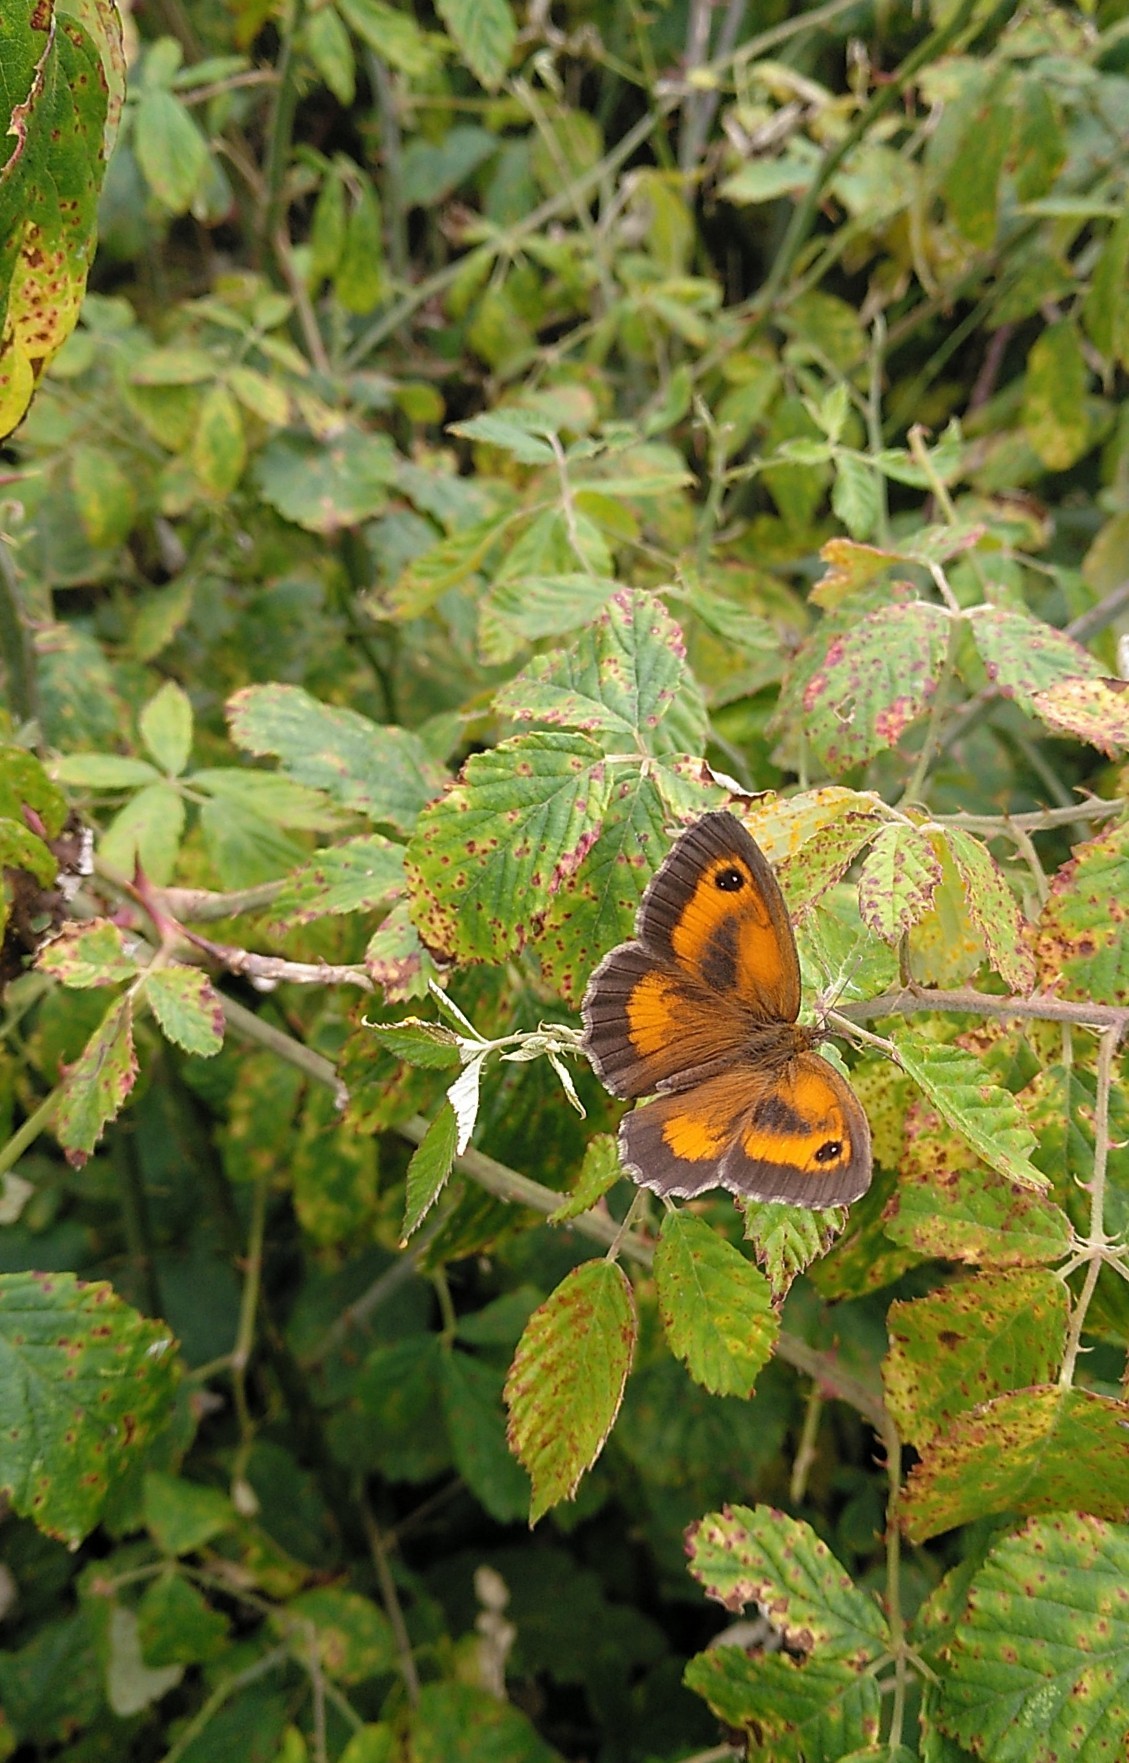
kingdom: Animalia
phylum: Arthropoda
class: Insecta
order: Lepidoptera
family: Nymphalidae
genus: Pyronia
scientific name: Pyronia tithonus
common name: Gatekeeper
